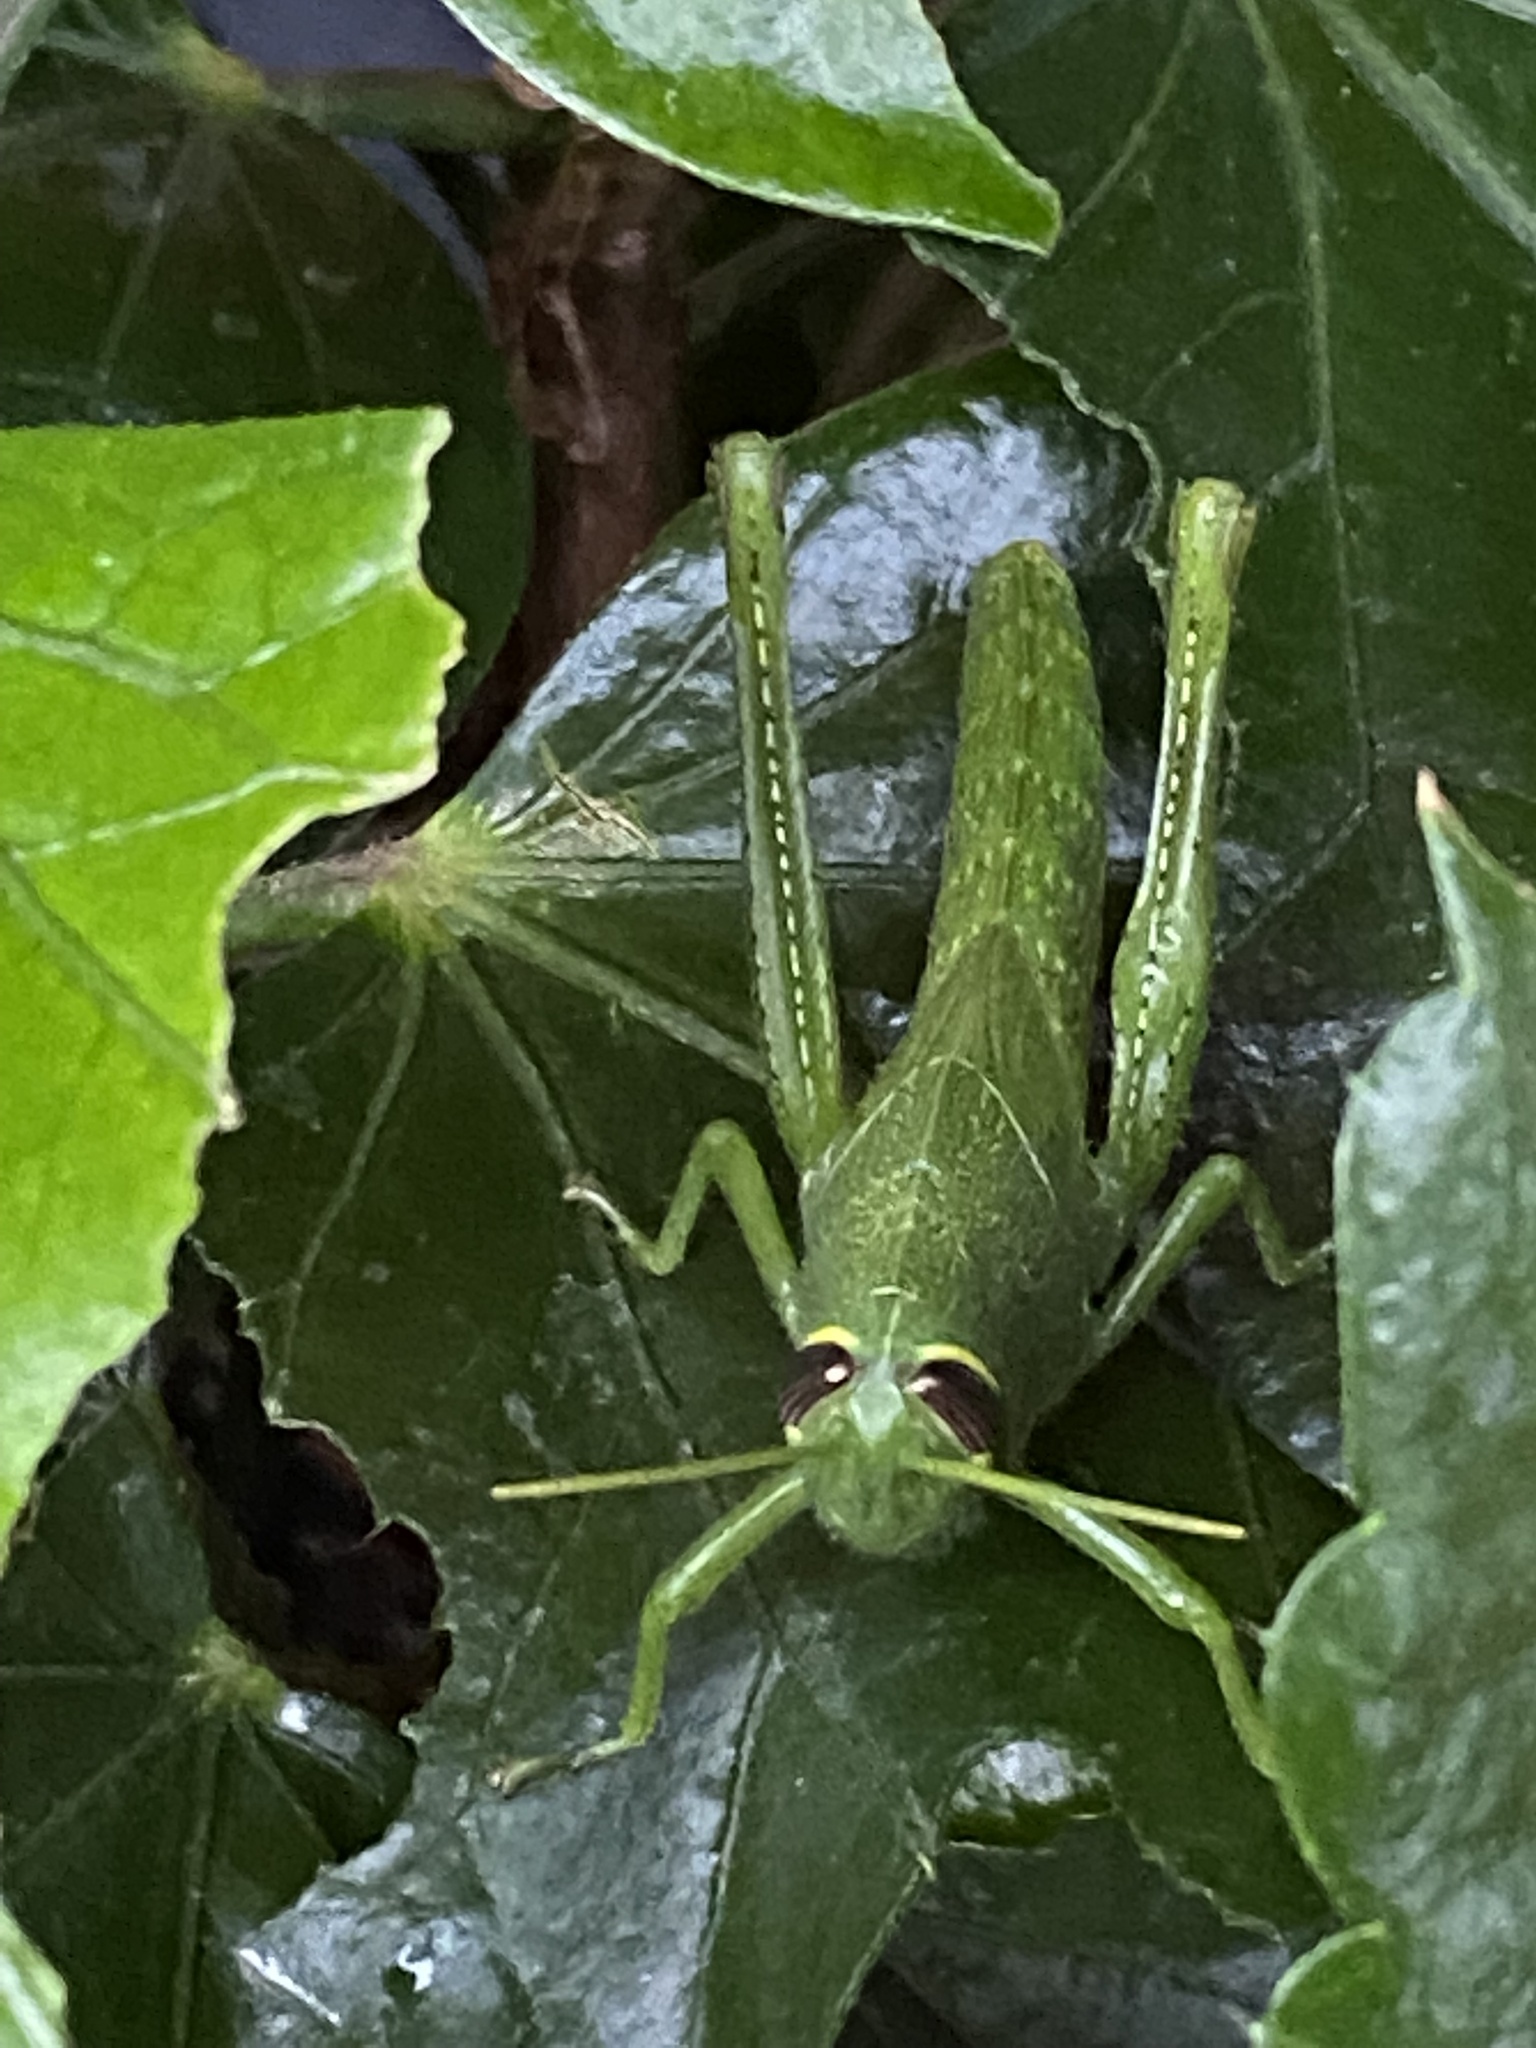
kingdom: Animalia
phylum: Arthropoda
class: Insecta
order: Orthoptera
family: Acrididae
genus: Schistocerca
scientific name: Schistocerca obscura
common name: Obscure bird grasshopper
